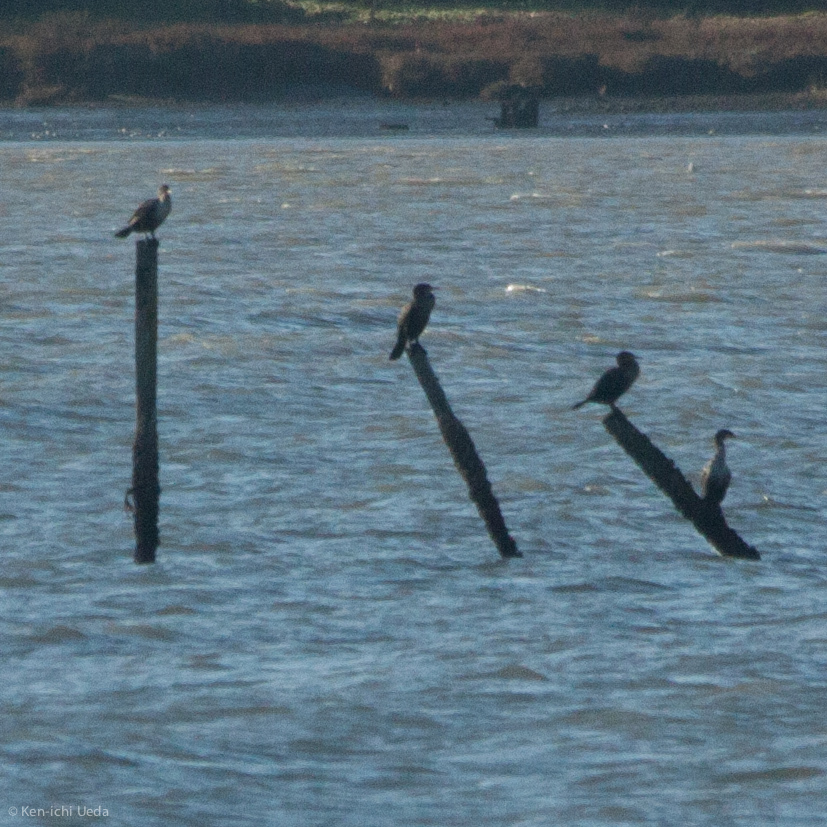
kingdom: Animalia
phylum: Chordata
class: Aves
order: Suliformes
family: Phalacrocoracidae
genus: Phalacrocorax
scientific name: Phalacrocorax auritus
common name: Double-crested cormorant
